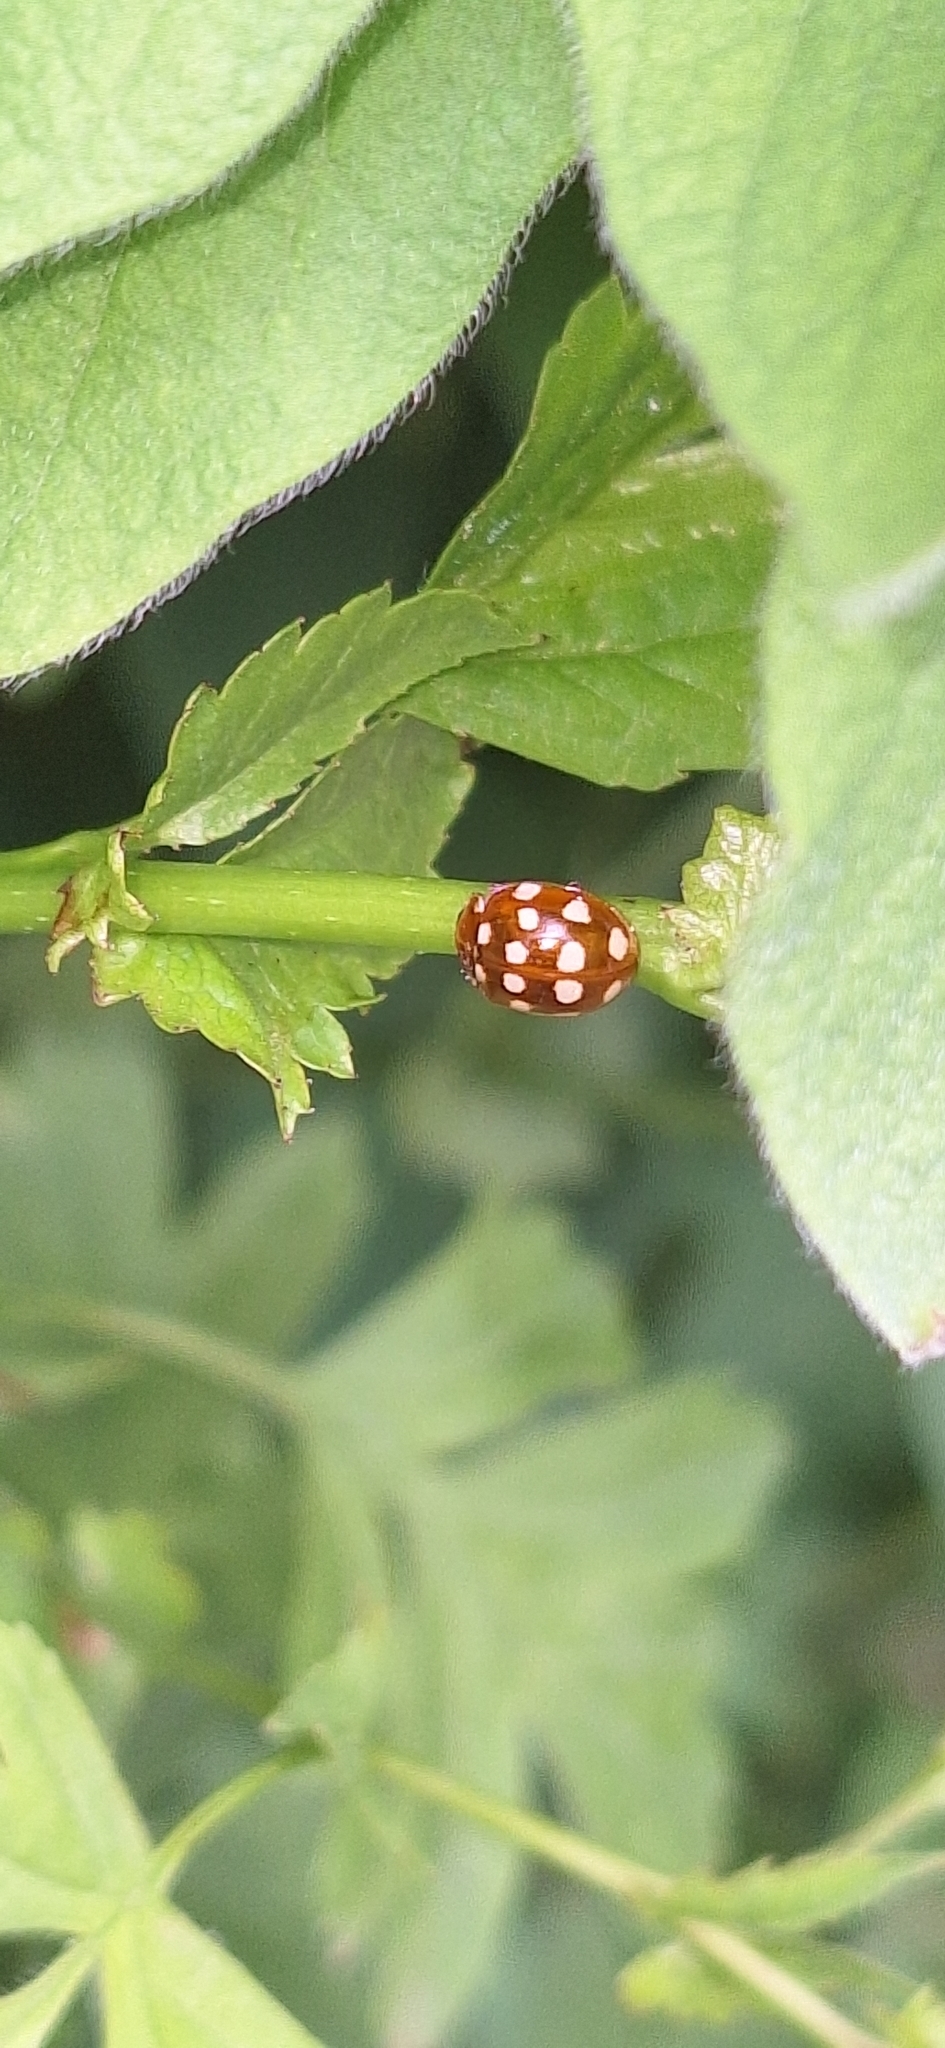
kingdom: Animalia
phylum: Arthropoda
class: Insecta
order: Coleoptera
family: Coccinellidae
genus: Calvia
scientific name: Calvia quatuordecimguttata
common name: Cream-spot ladybird
